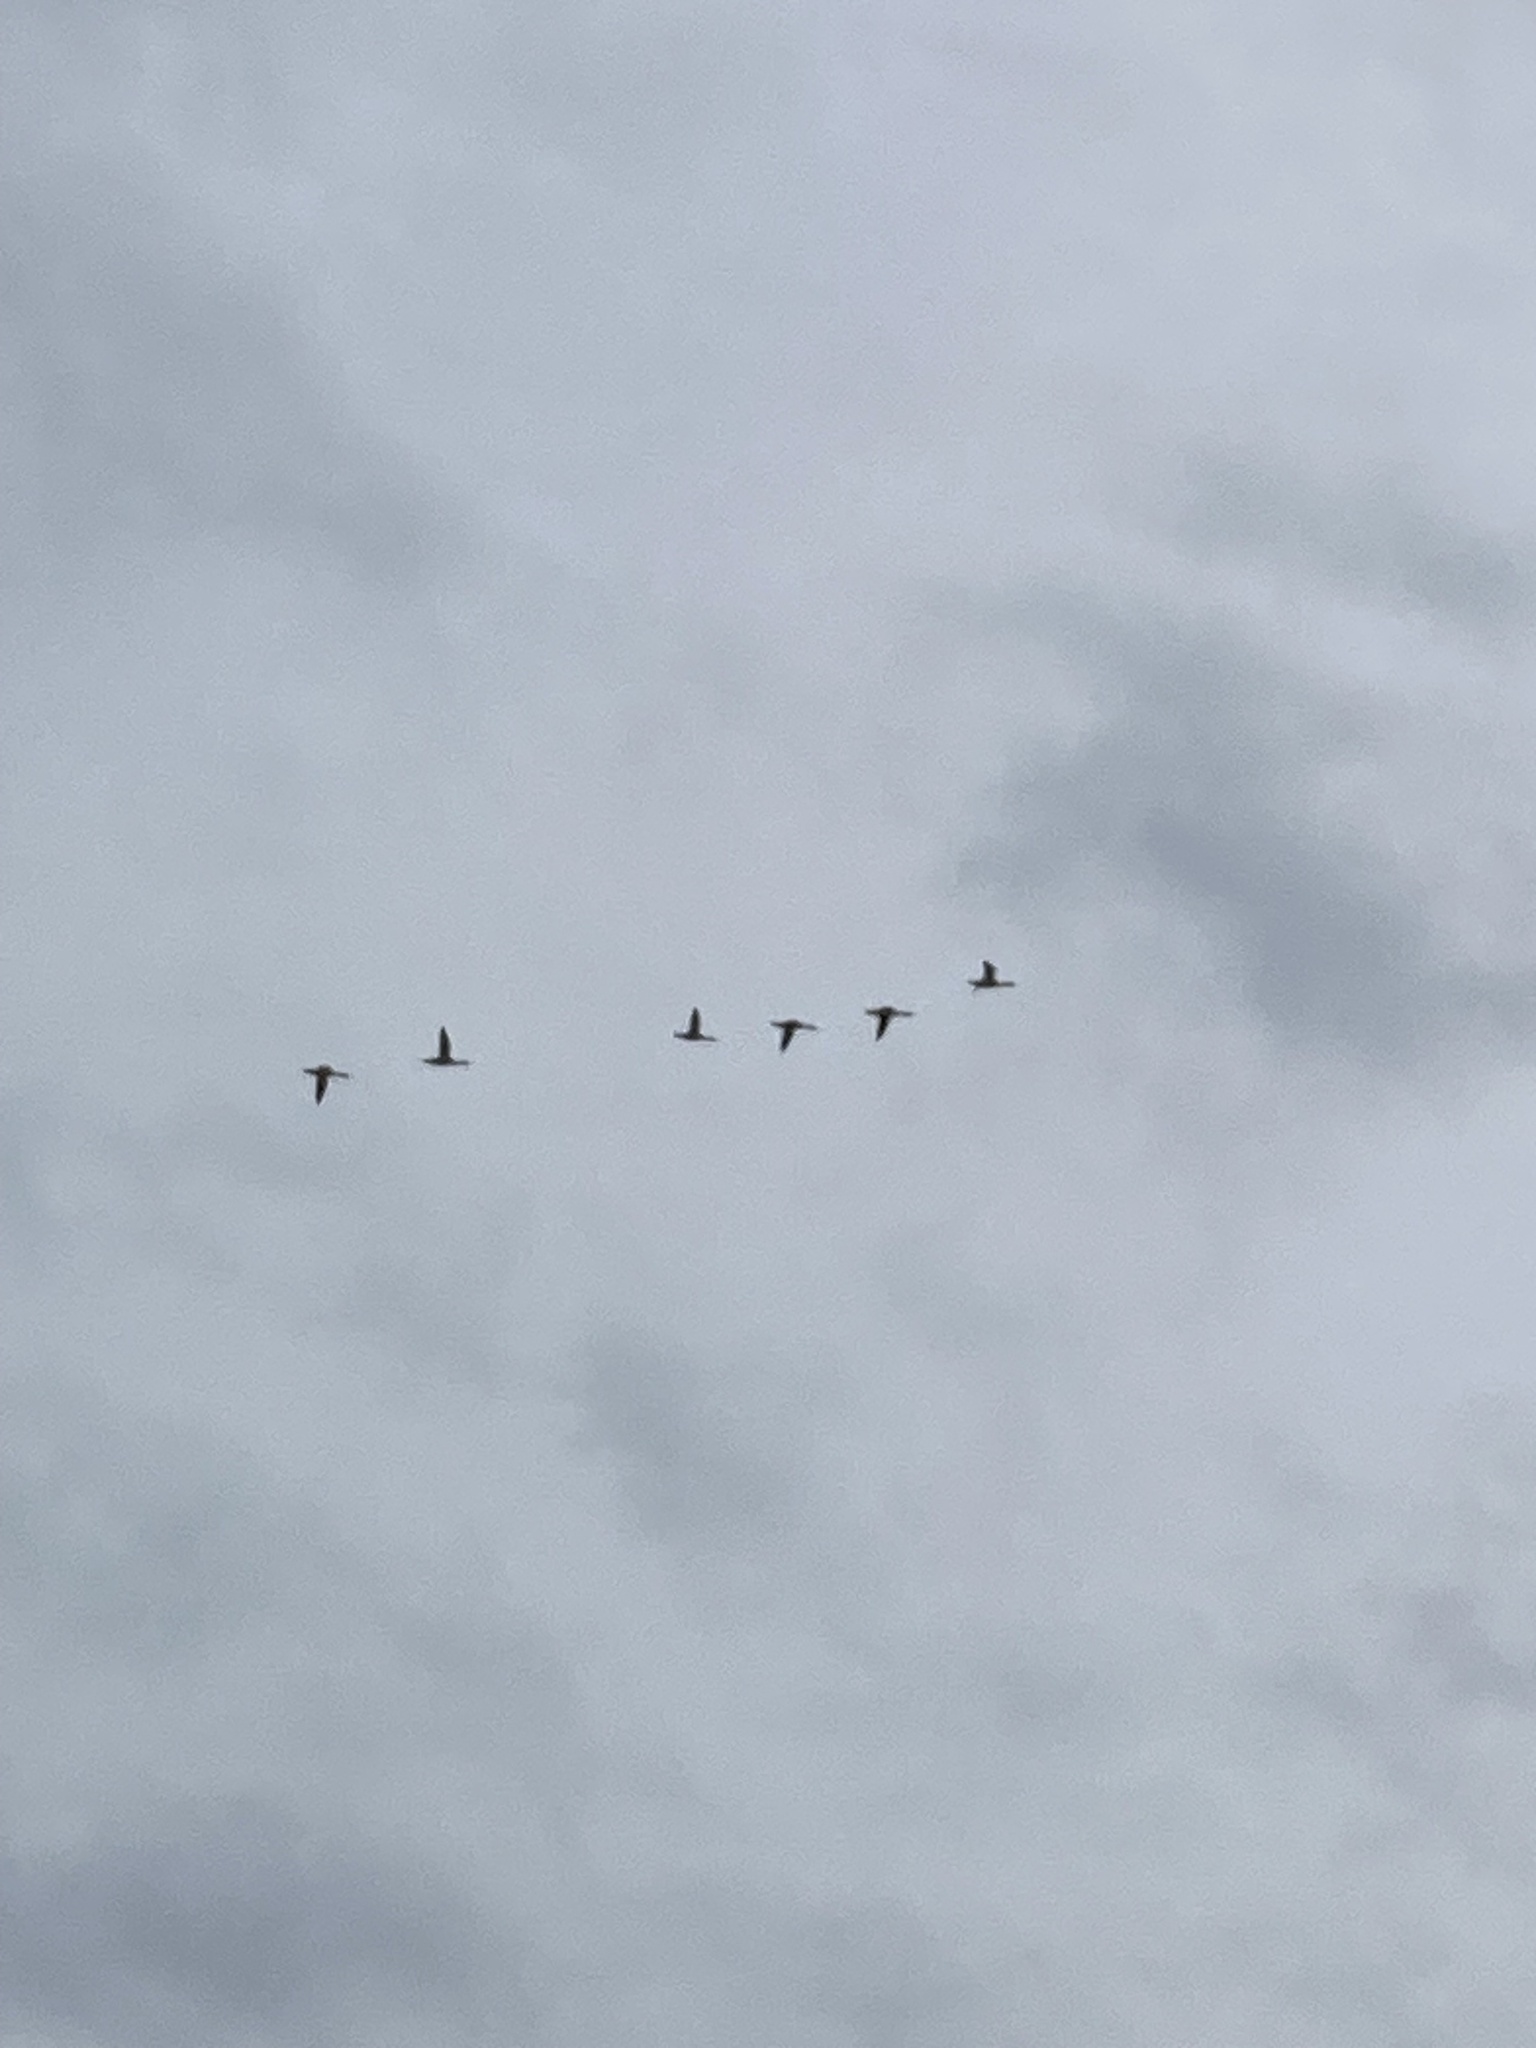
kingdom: Animalia
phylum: Chordata
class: Aves
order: Anseriformes
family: Anatidae
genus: Mergus
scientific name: Mergus merganser
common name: Common merganser
